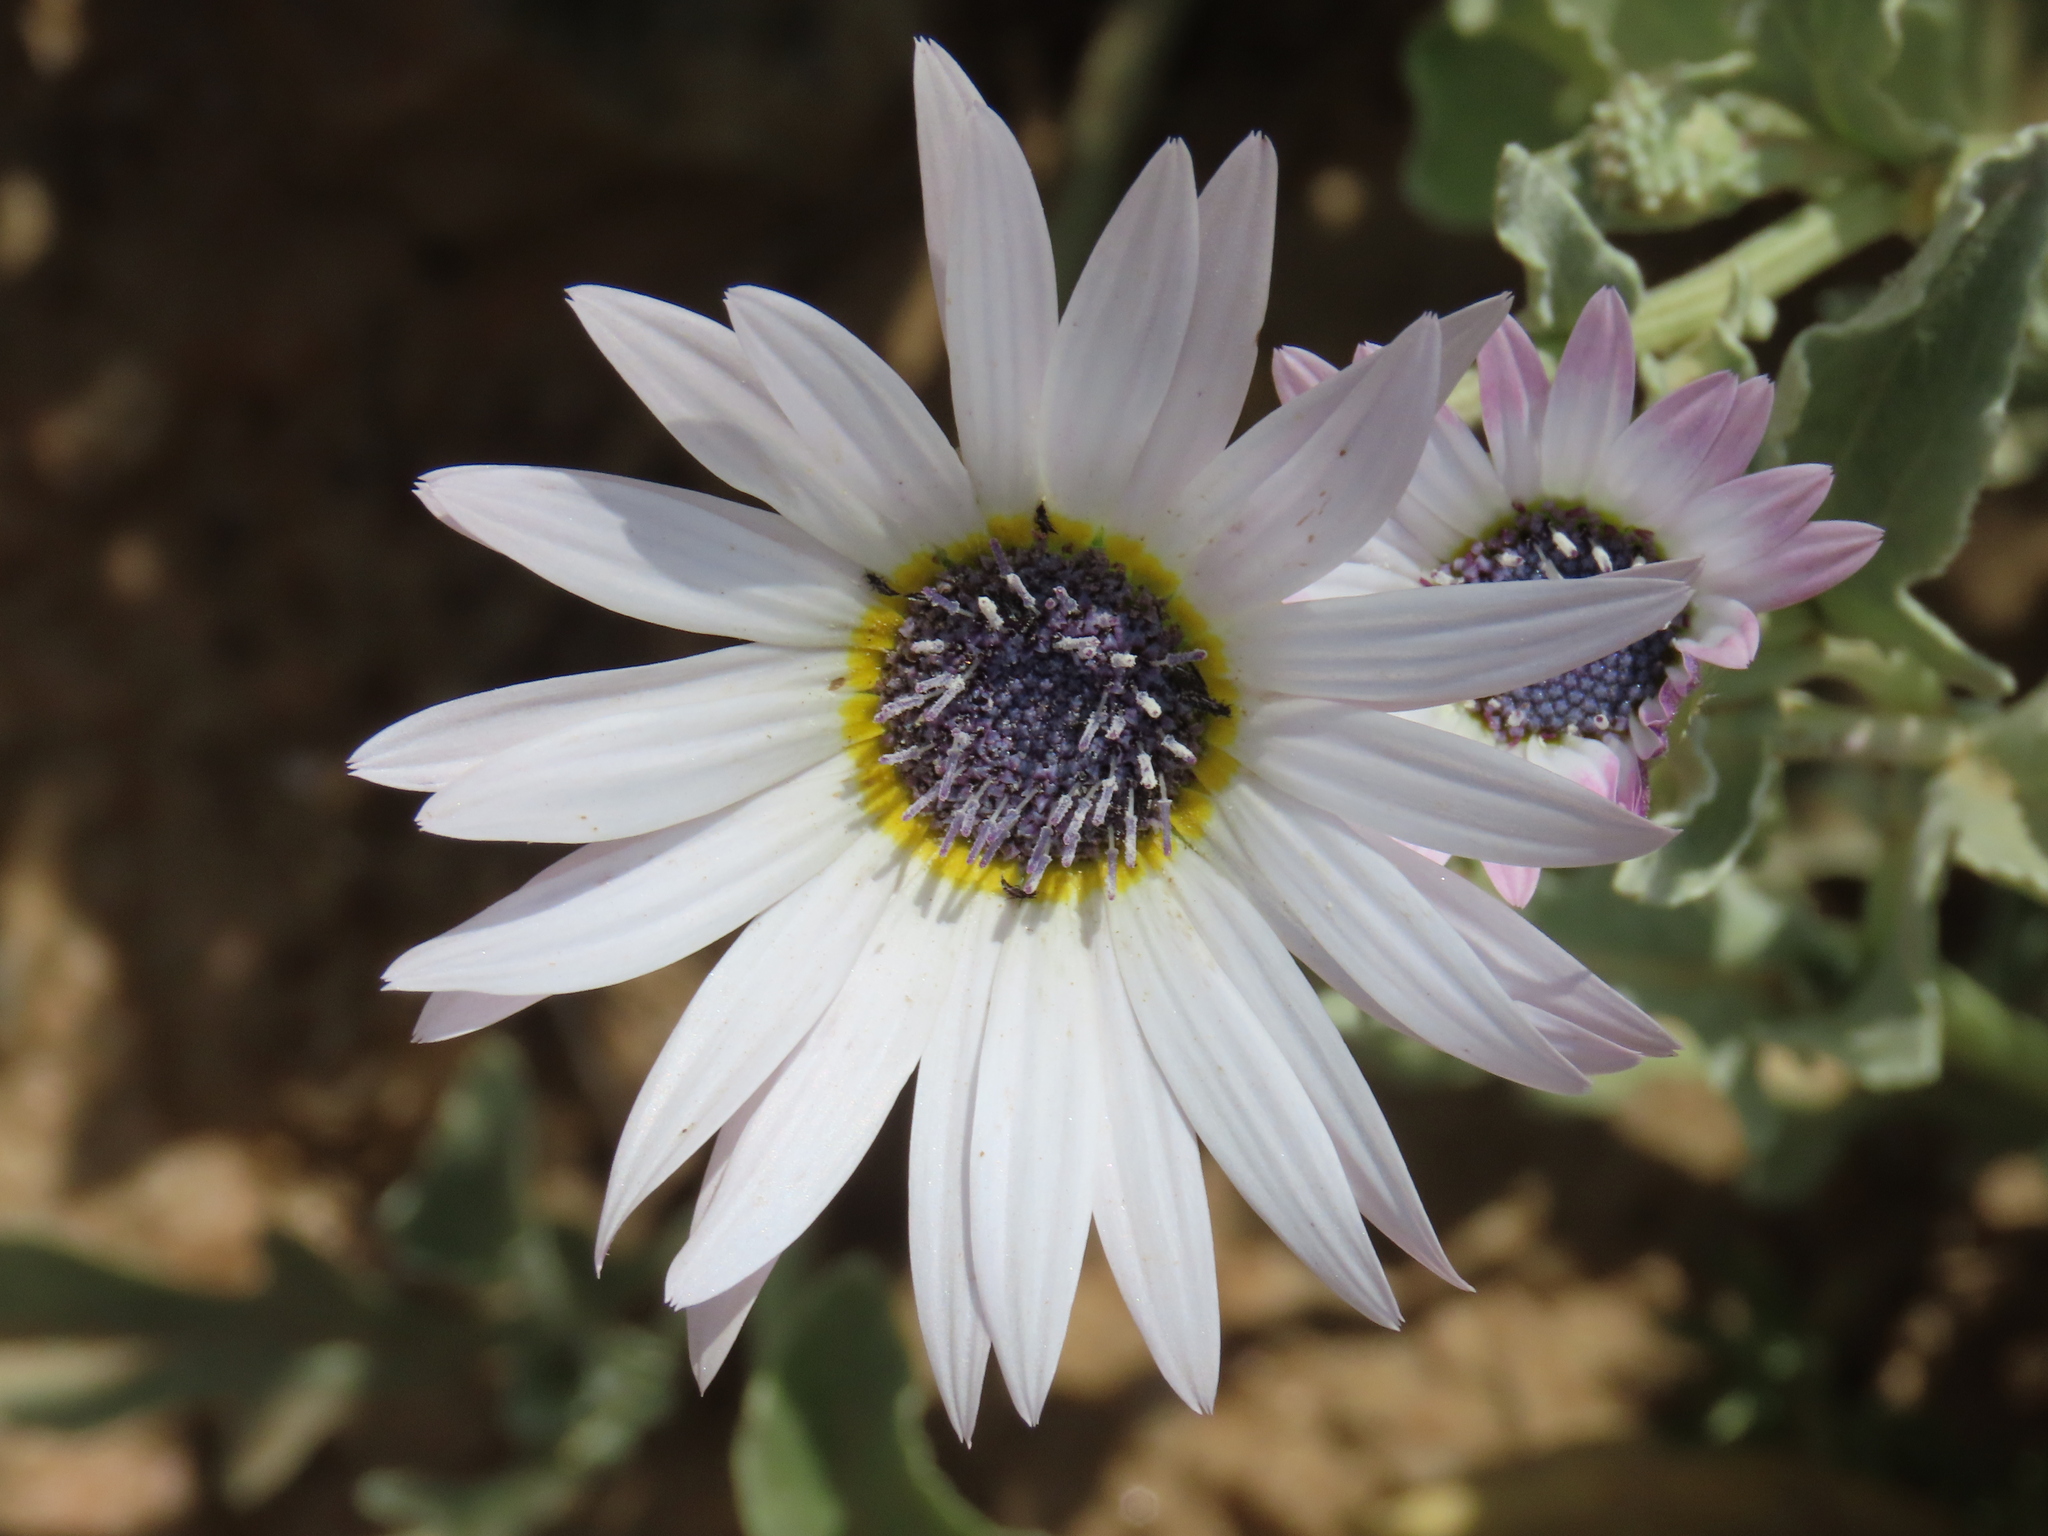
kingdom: Plantae
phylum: Tracheophyta
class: Magnoliopsida
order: Asterales
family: Asteraceae
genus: Arctotis
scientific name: Arctotis venusta
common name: African daisy
